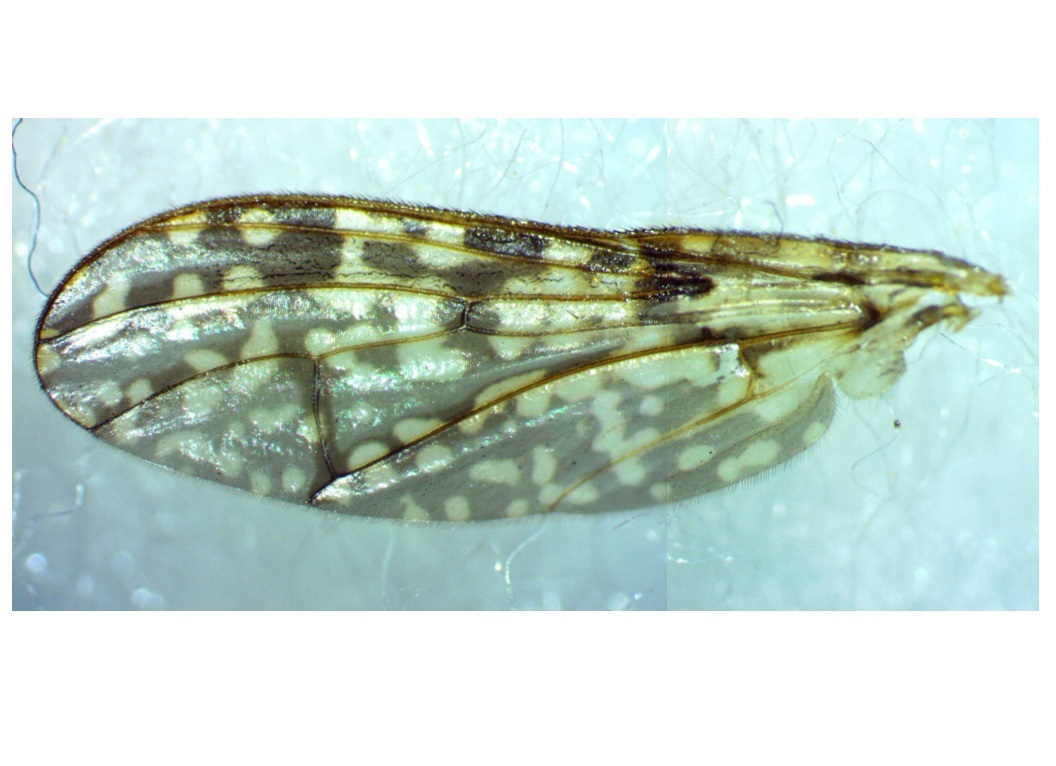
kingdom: Animalia
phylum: Arthropoda
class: Insecta
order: Diptera
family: Pyrgotidae
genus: Boreothrinax
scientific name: Boreothrinax
